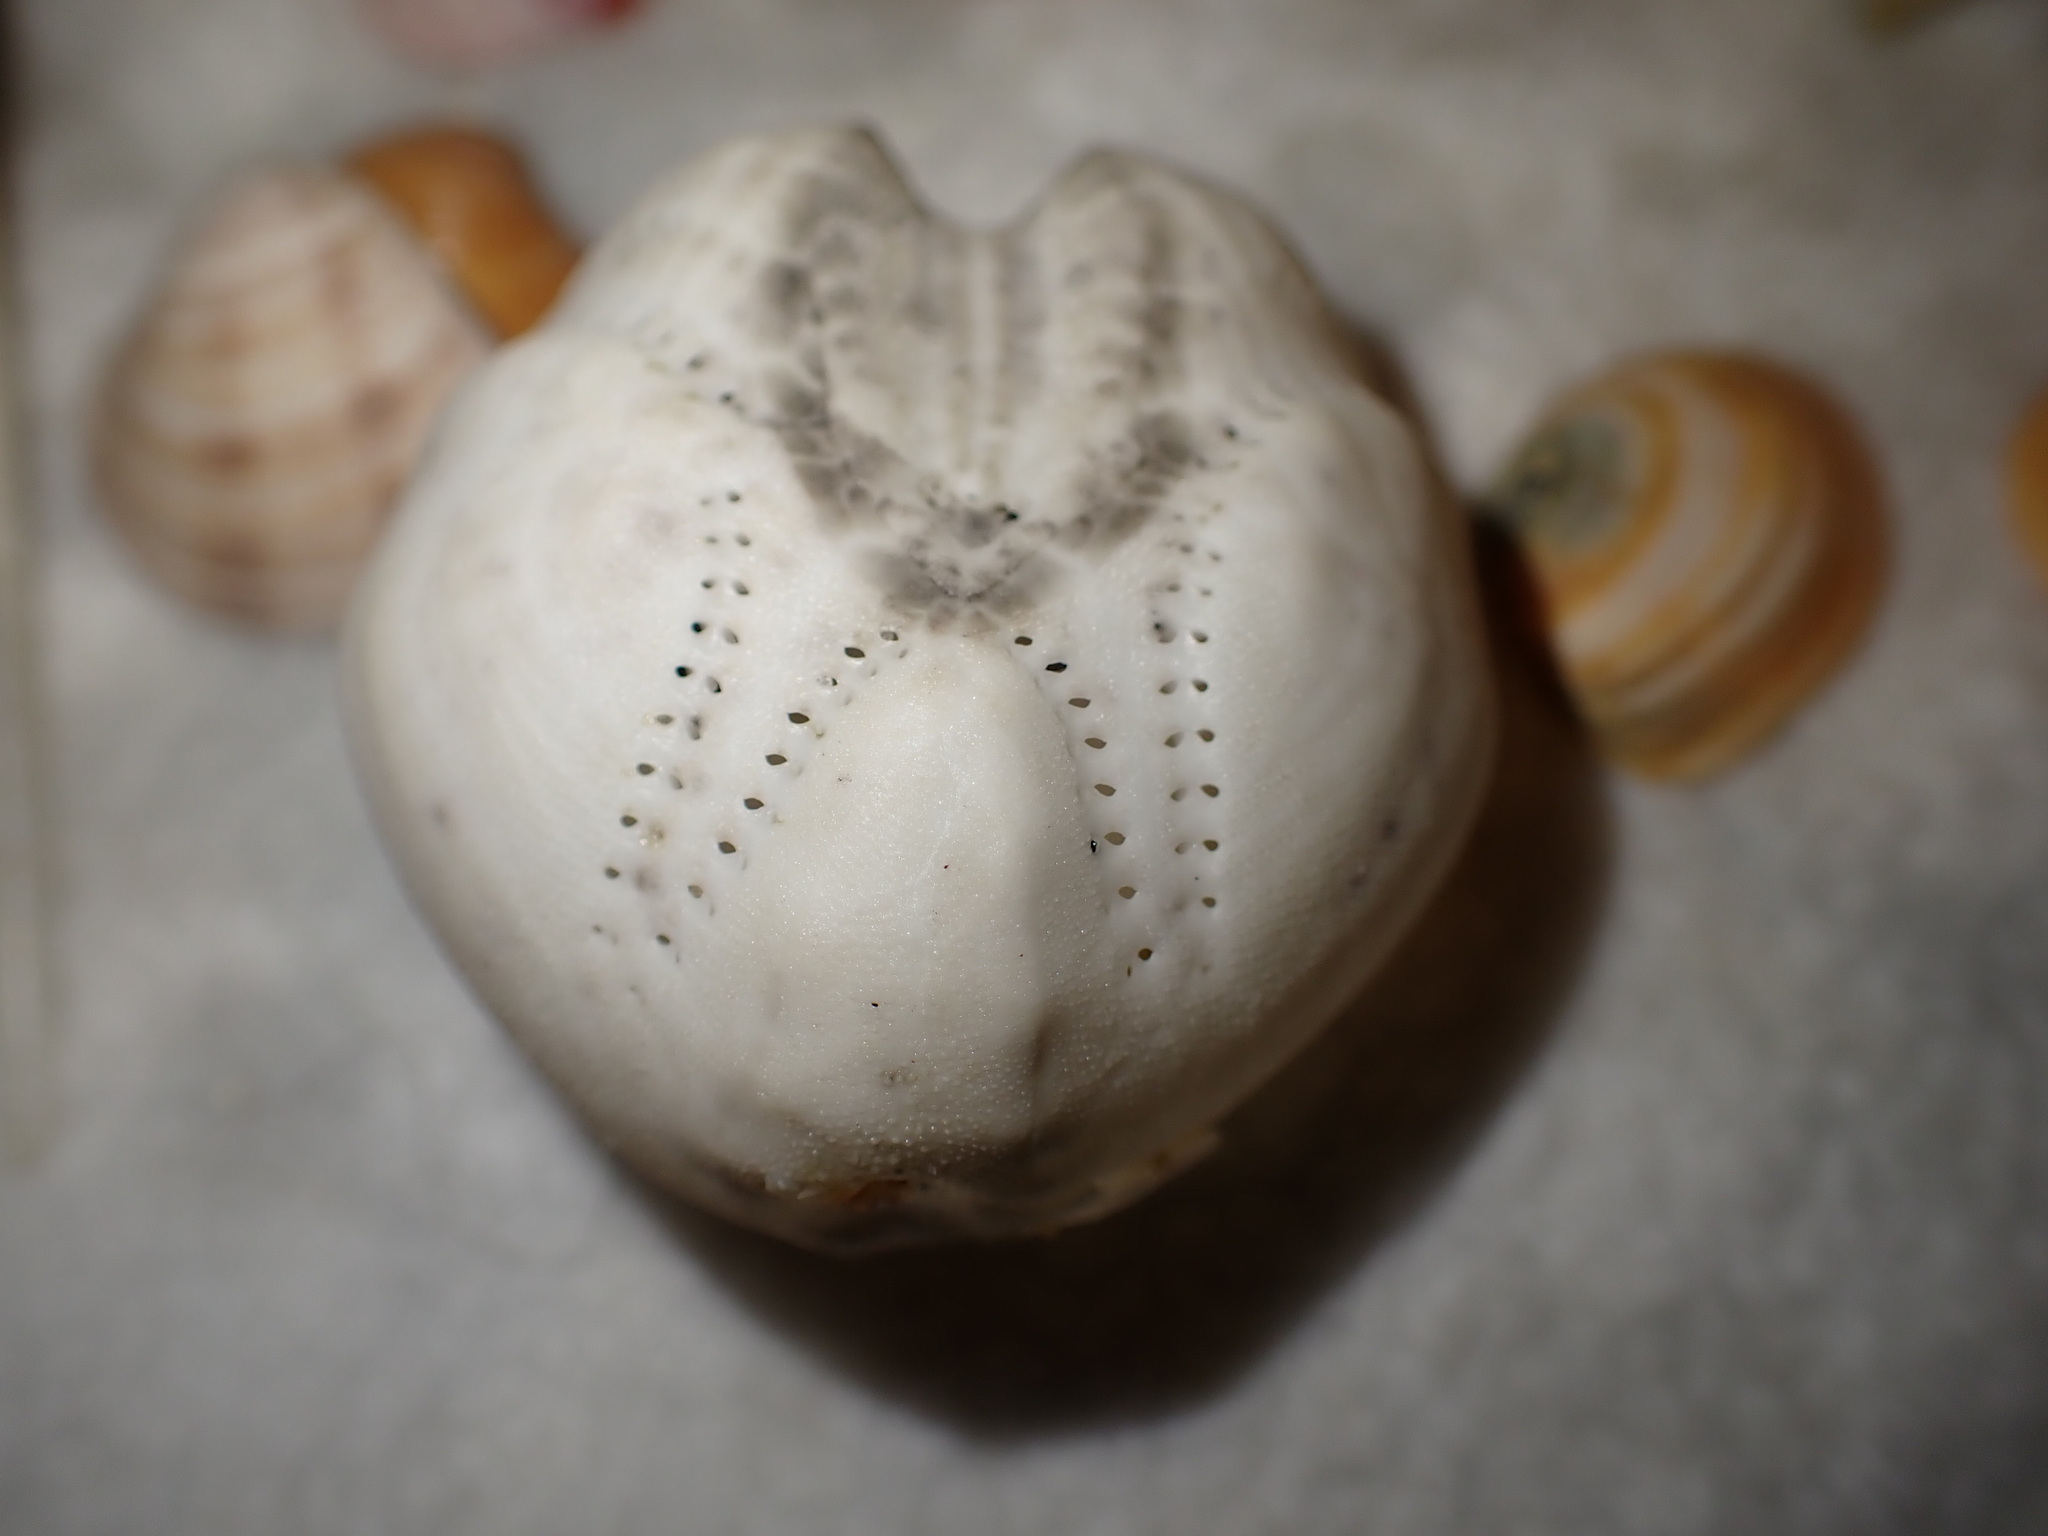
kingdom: Animalia
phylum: Echinodermata
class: Echinoidea
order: Spatangoida
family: Loveniidae
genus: Echinocardium
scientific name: Echinocardium cordatum
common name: Heart-urchin
